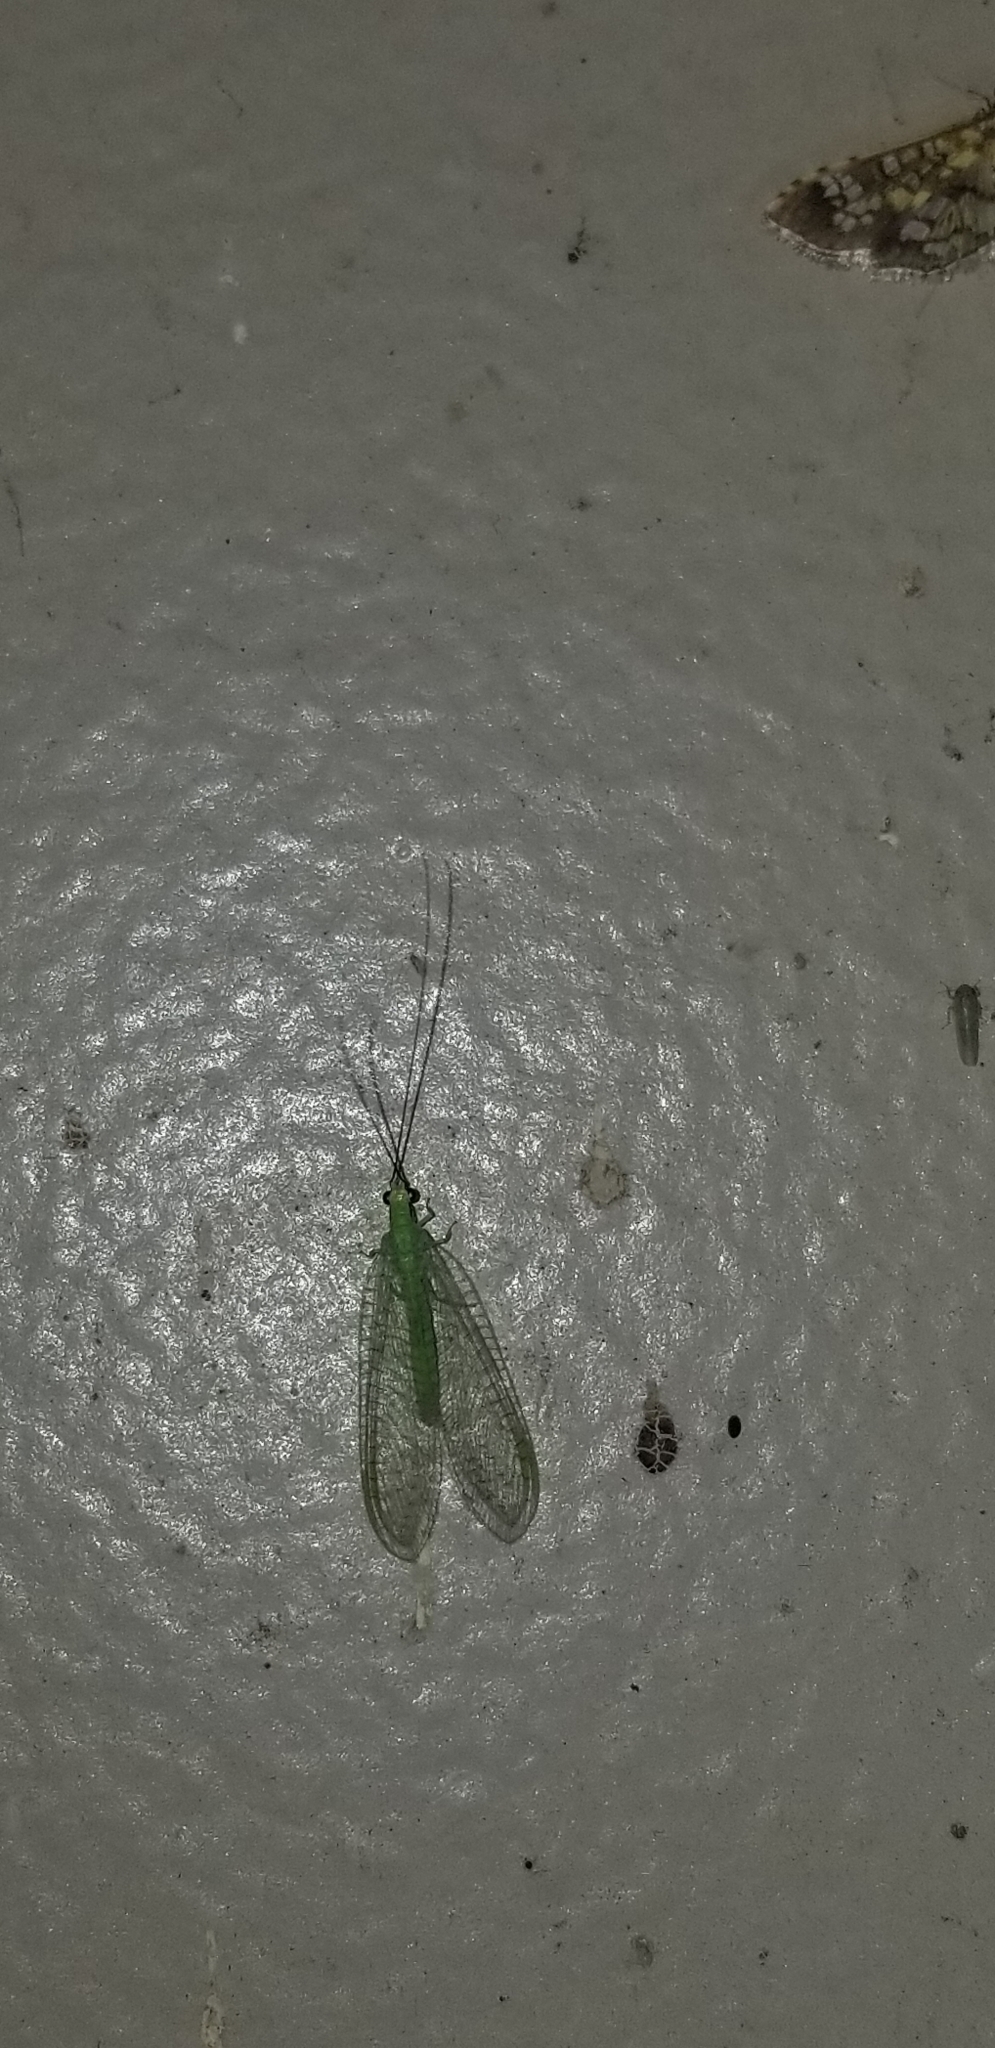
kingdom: Animalia
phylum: Arthropoda
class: Insecta
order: Neuroptera
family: Chrysopidae
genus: Ceraeochrysa
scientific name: Ceraeochrysa lineaticornis
